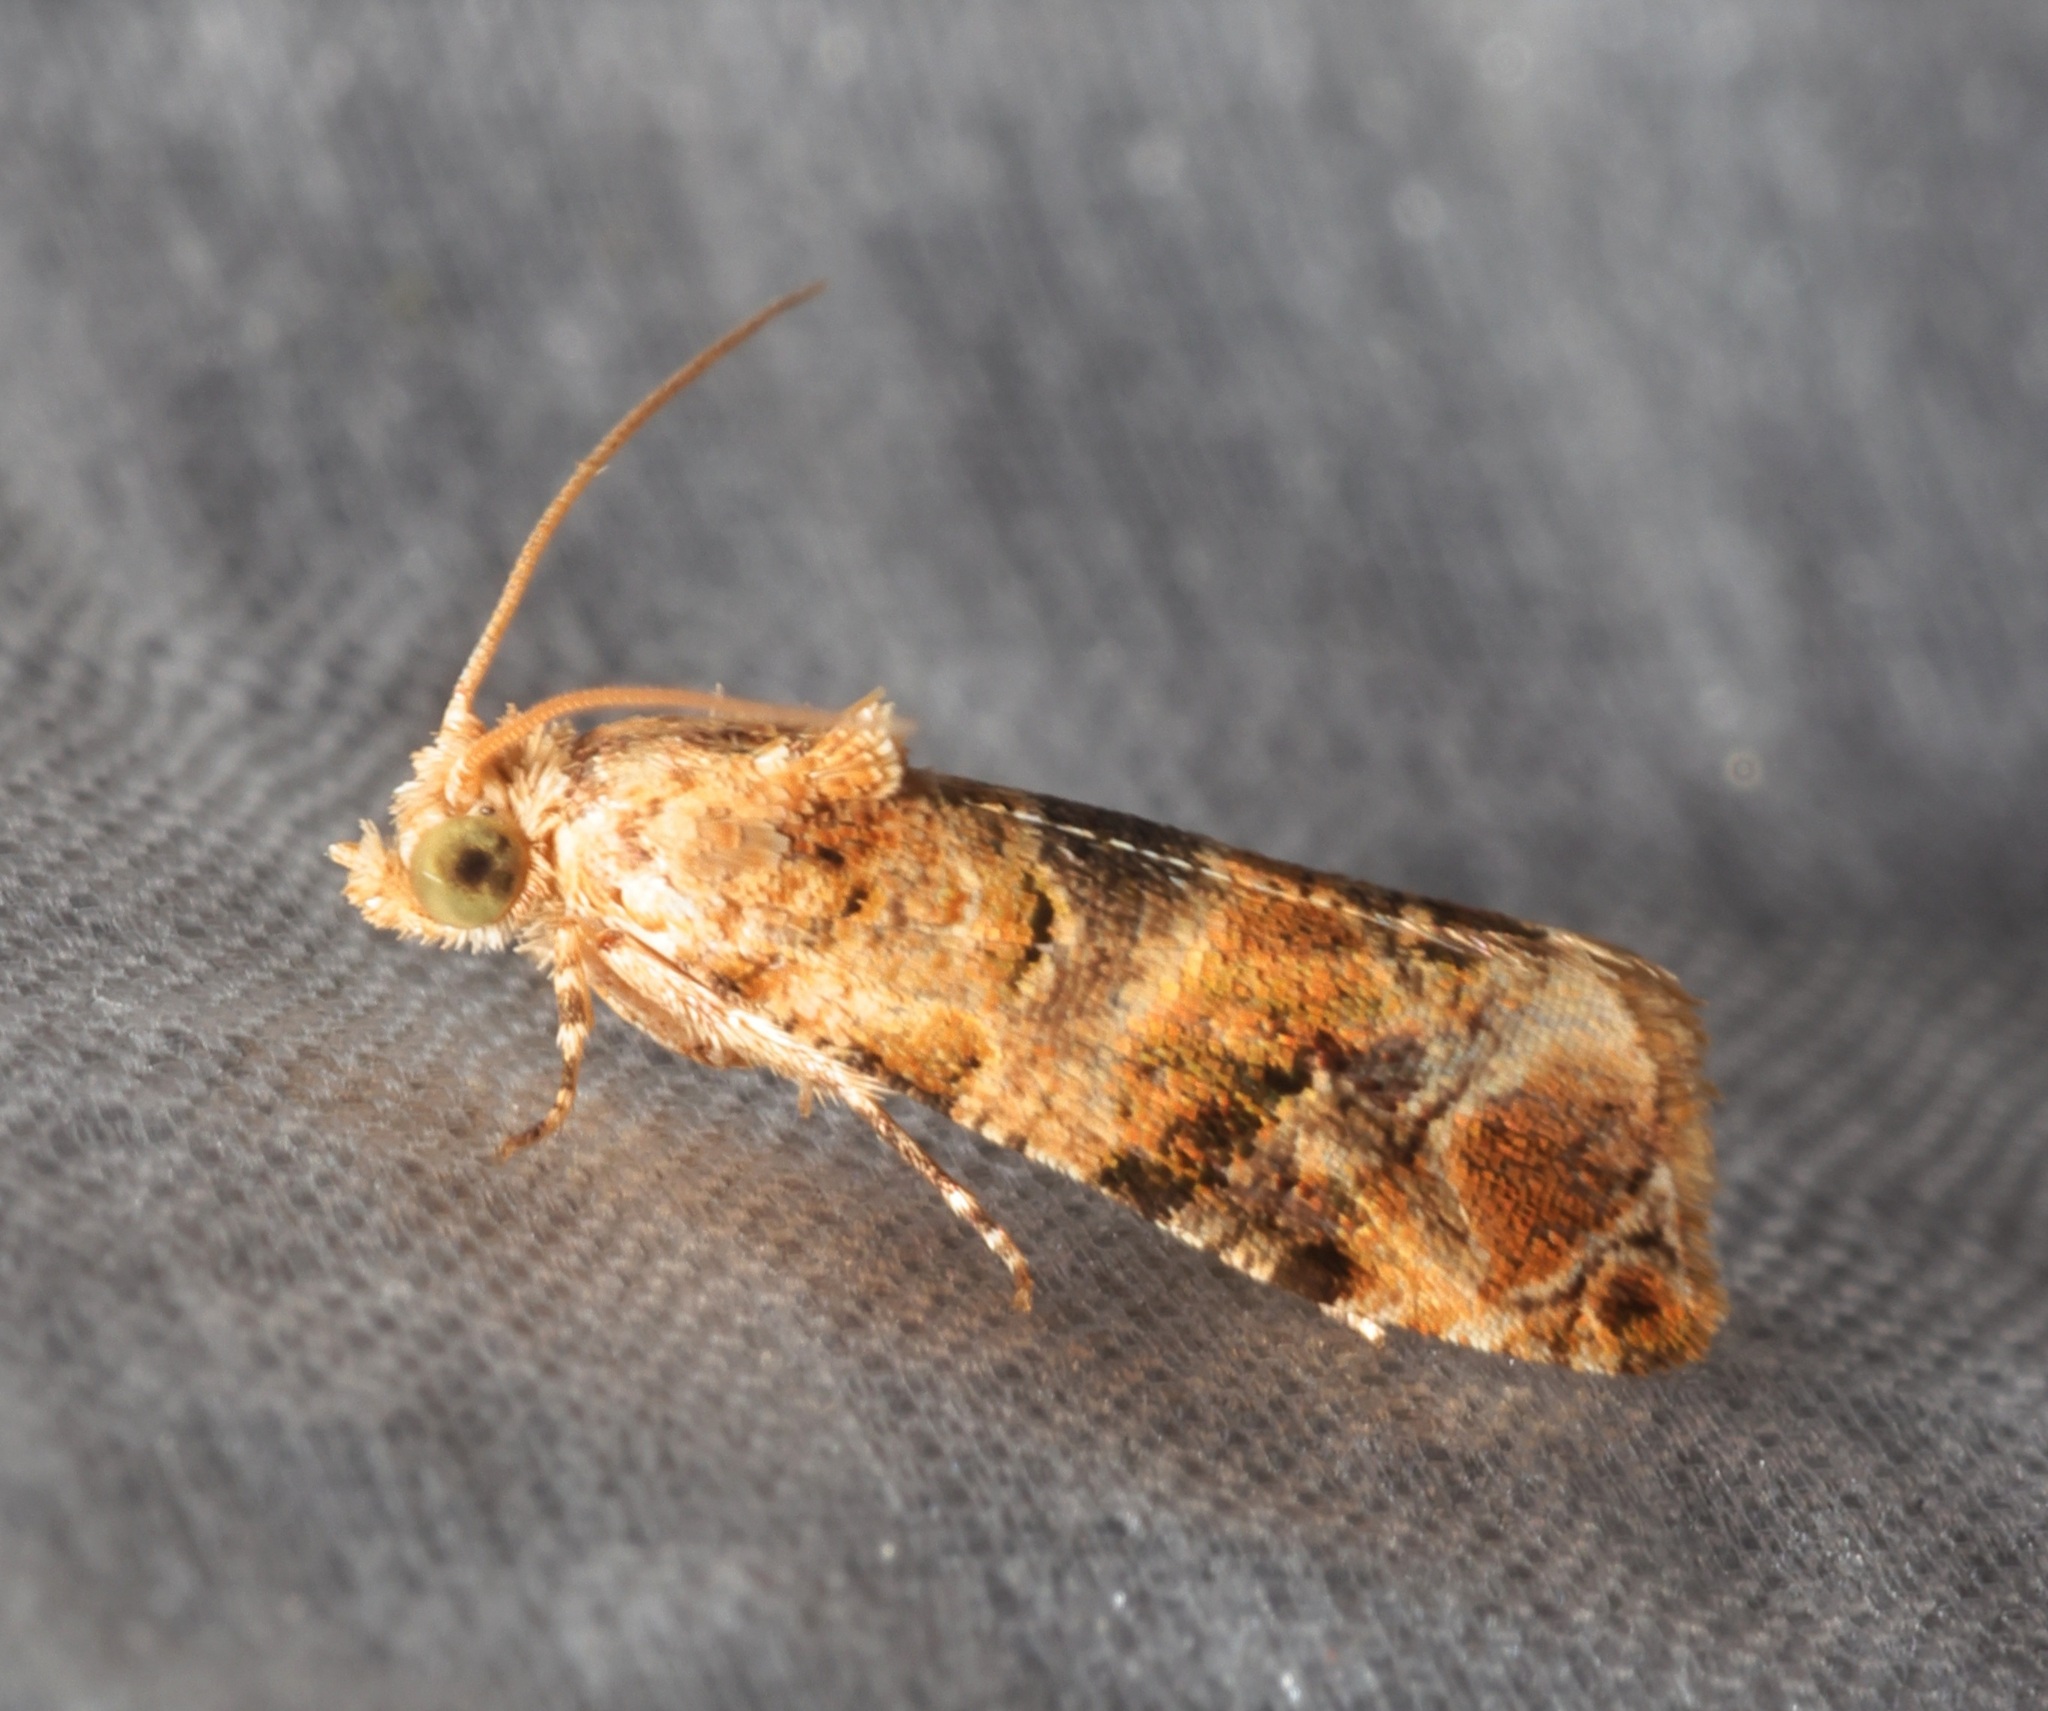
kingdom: Animalia
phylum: Arthropoda
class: Insecta
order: Lepidoptera
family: Tortricidae
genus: Lobesia
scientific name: Lobesia aeolopa
